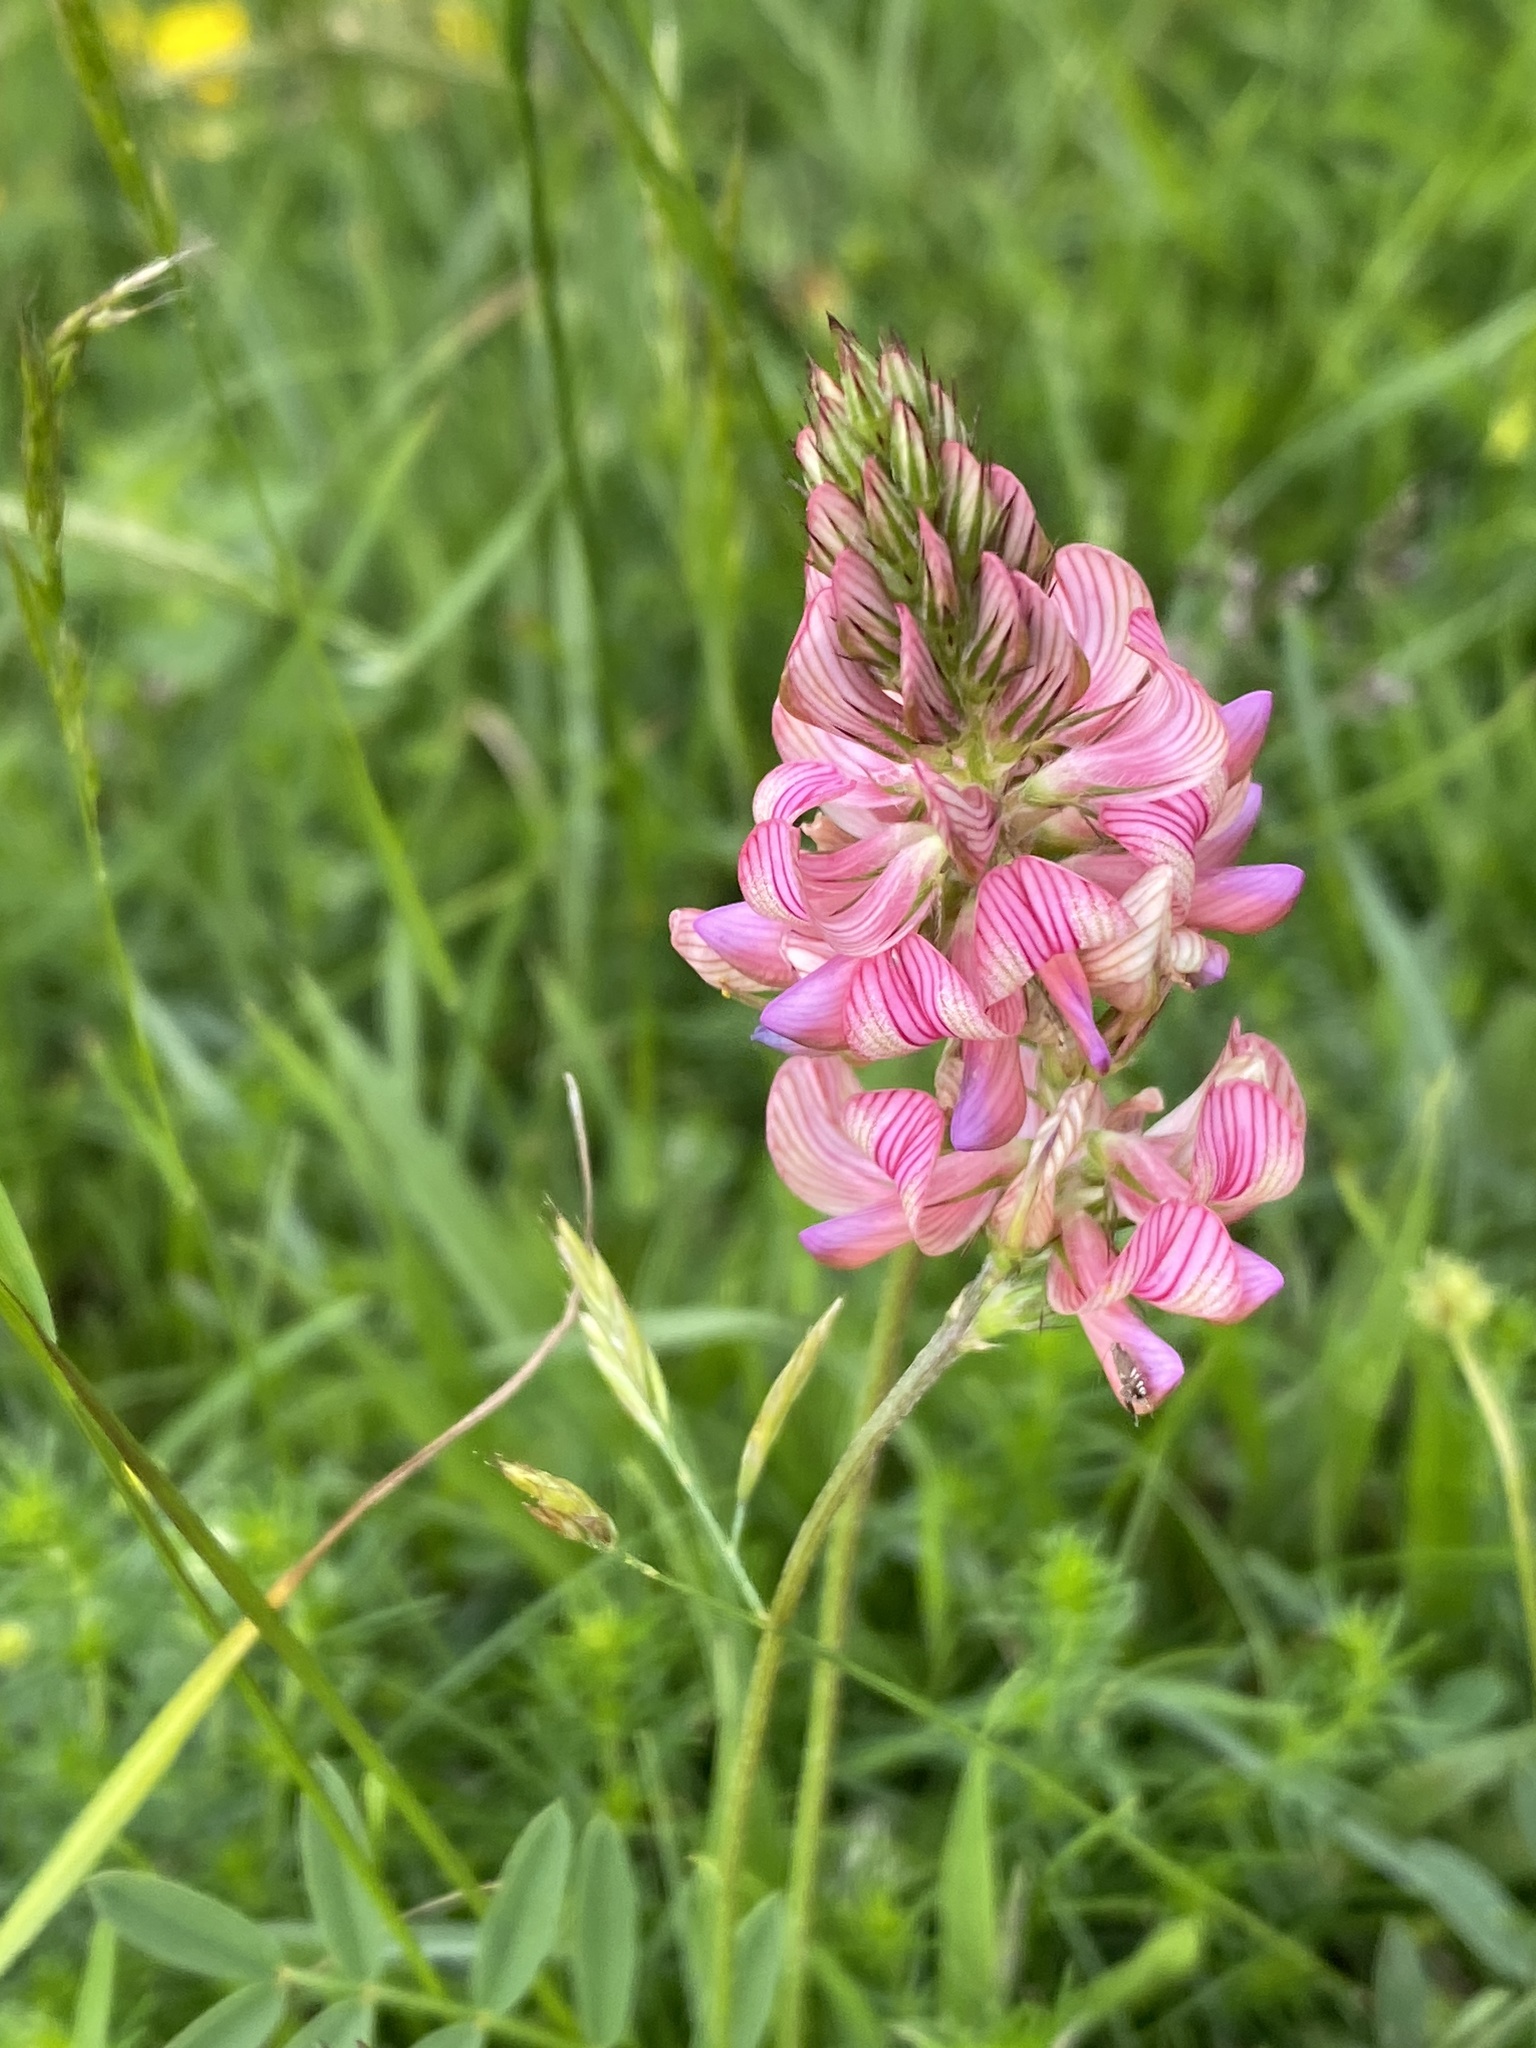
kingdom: Plantae
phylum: Tracheophyta
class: Magnoliopsida
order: Fabales
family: Fabaceae
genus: Onobrychis
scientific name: Onobrychis viciifolia
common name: Sainfoin
